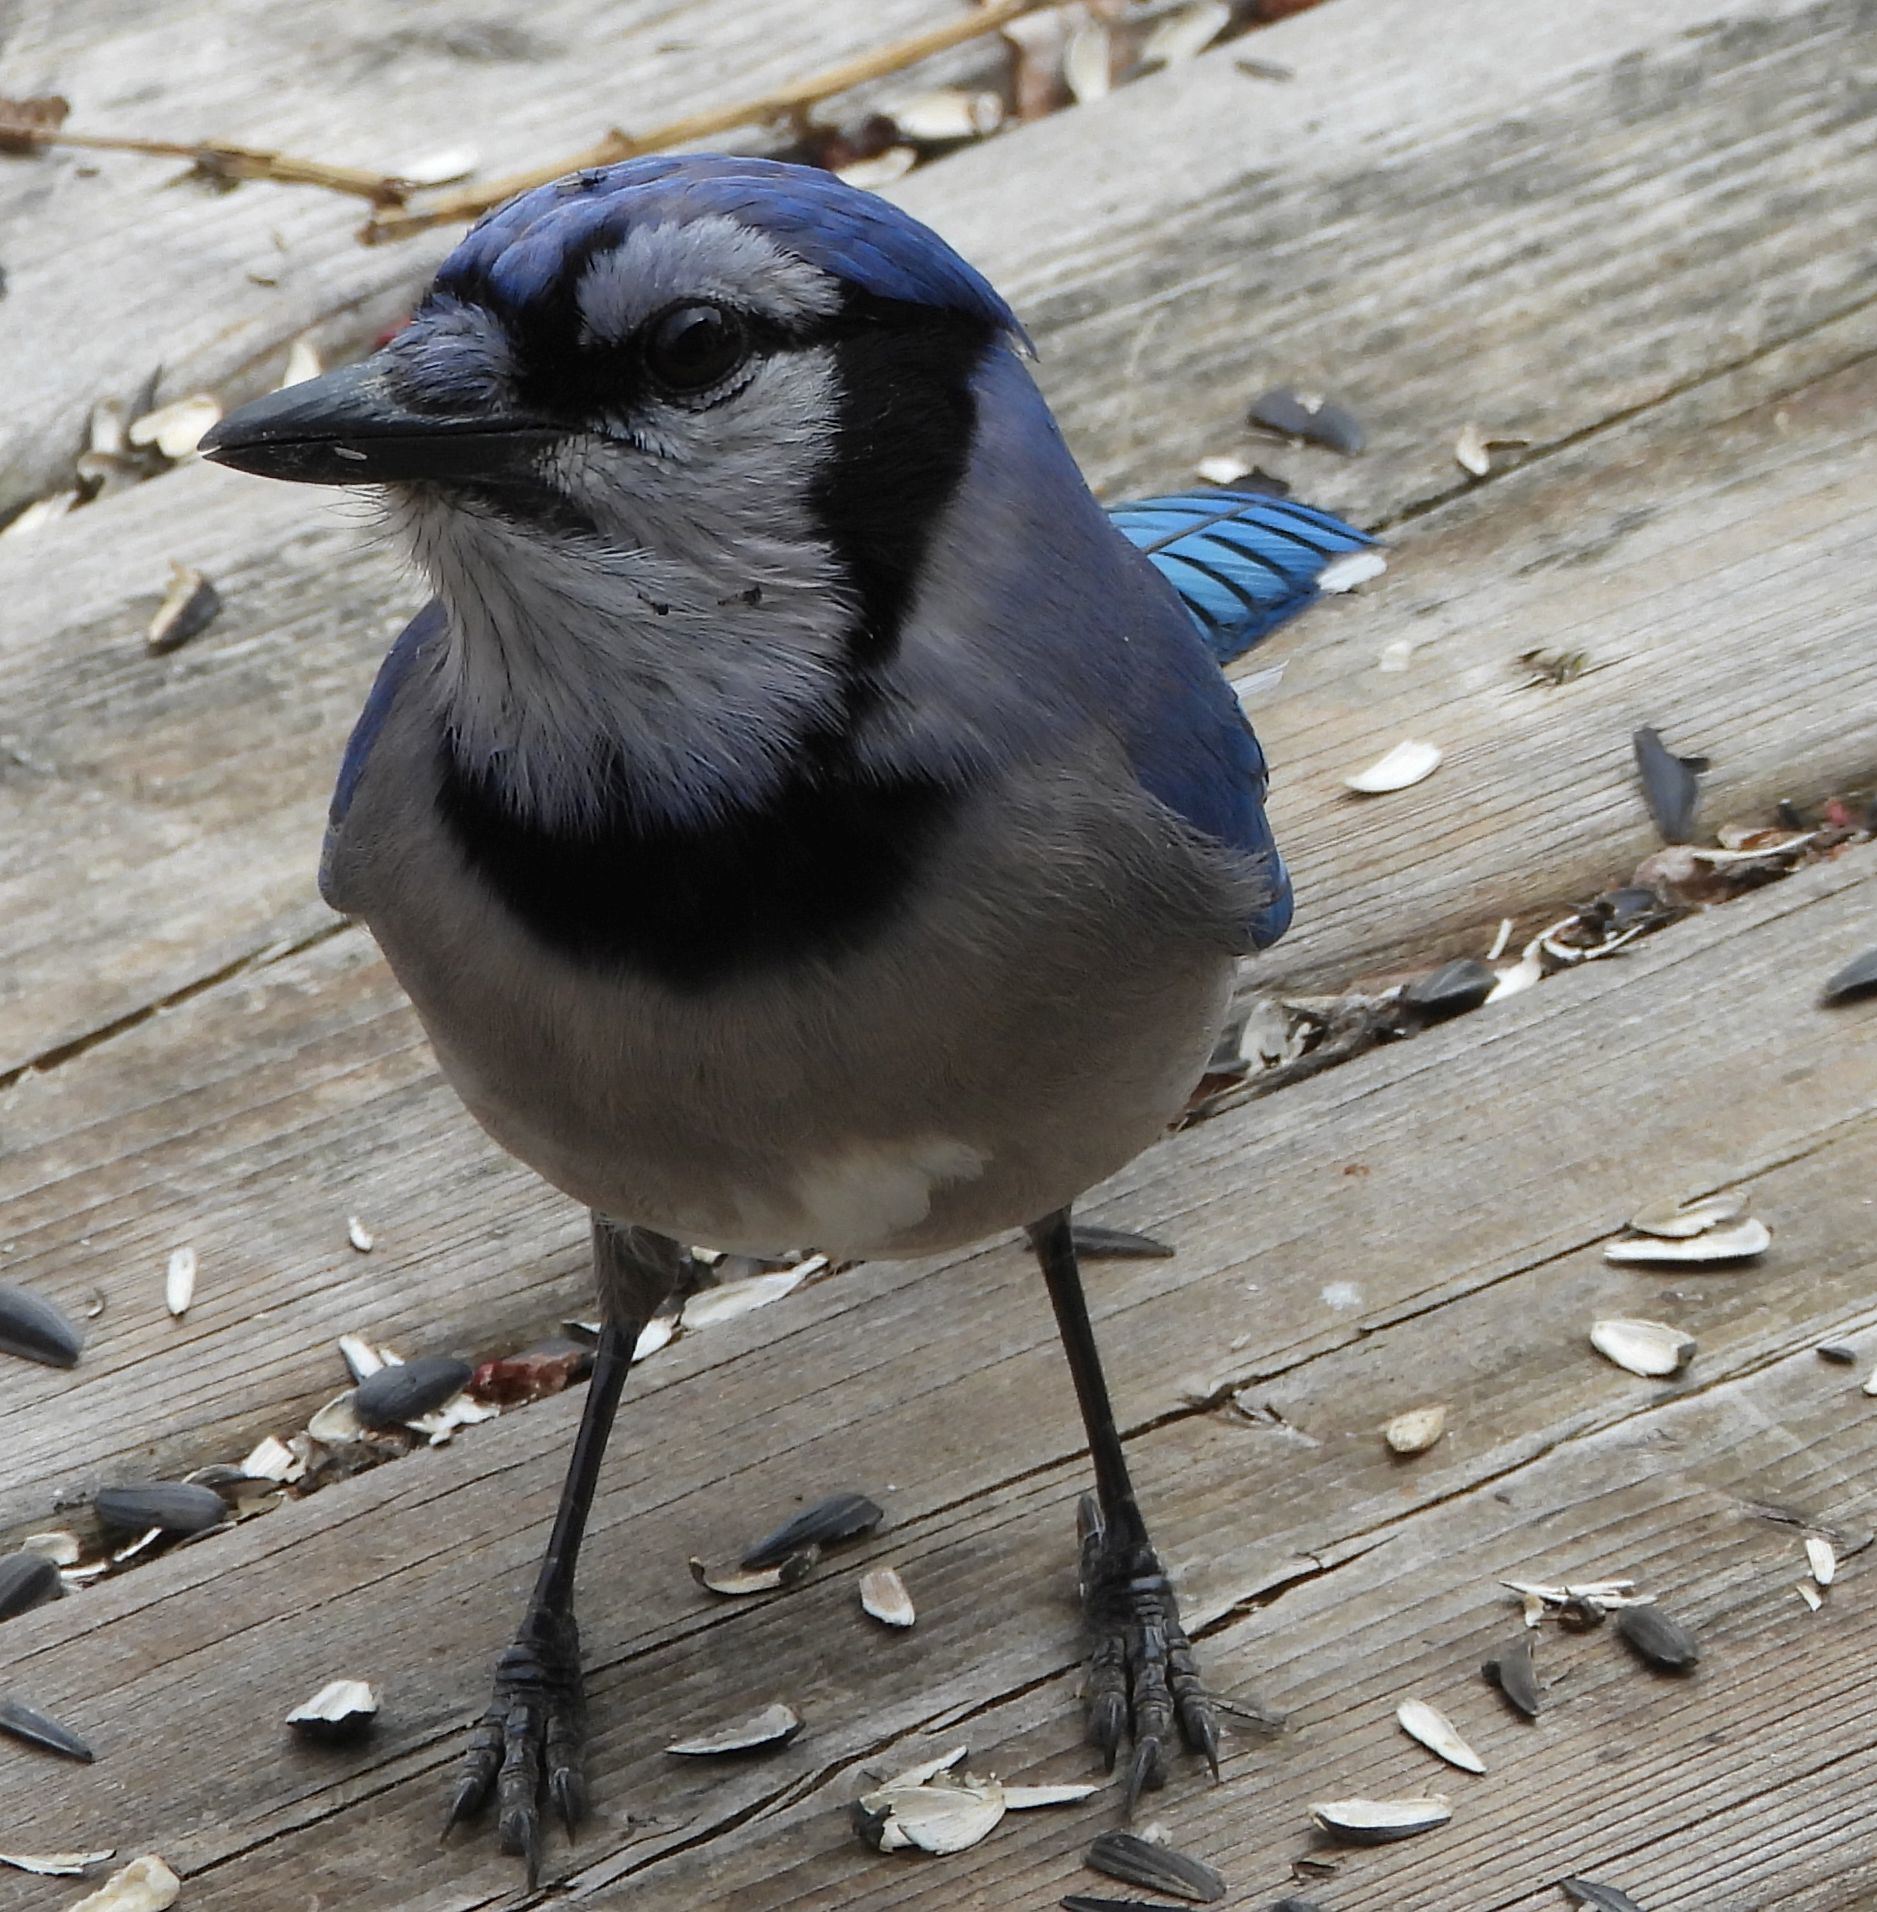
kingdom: Animalia
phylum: Chordata
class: Aves
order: Passeriformes
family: Corvidae
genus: Cyanocitta
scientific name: Cyanocitta cristata
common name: Blue jay
